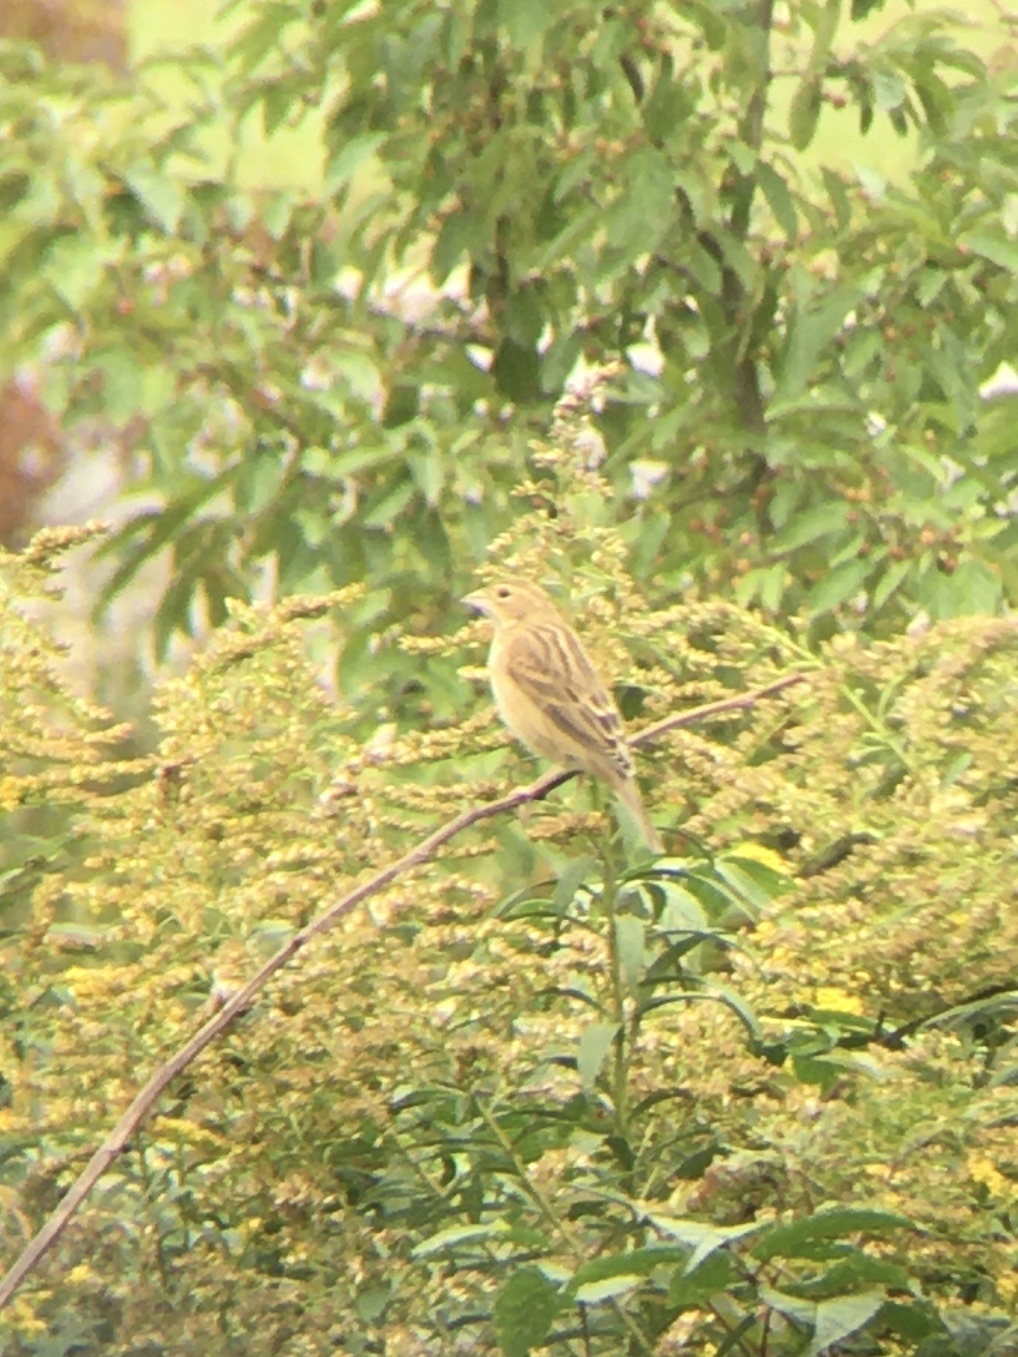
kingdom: Animalia
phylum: Chordata
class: Aves
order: Passeriformes
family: Cardinalidae
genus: Spiza
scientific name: Spiza americana
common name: Dickcissel
